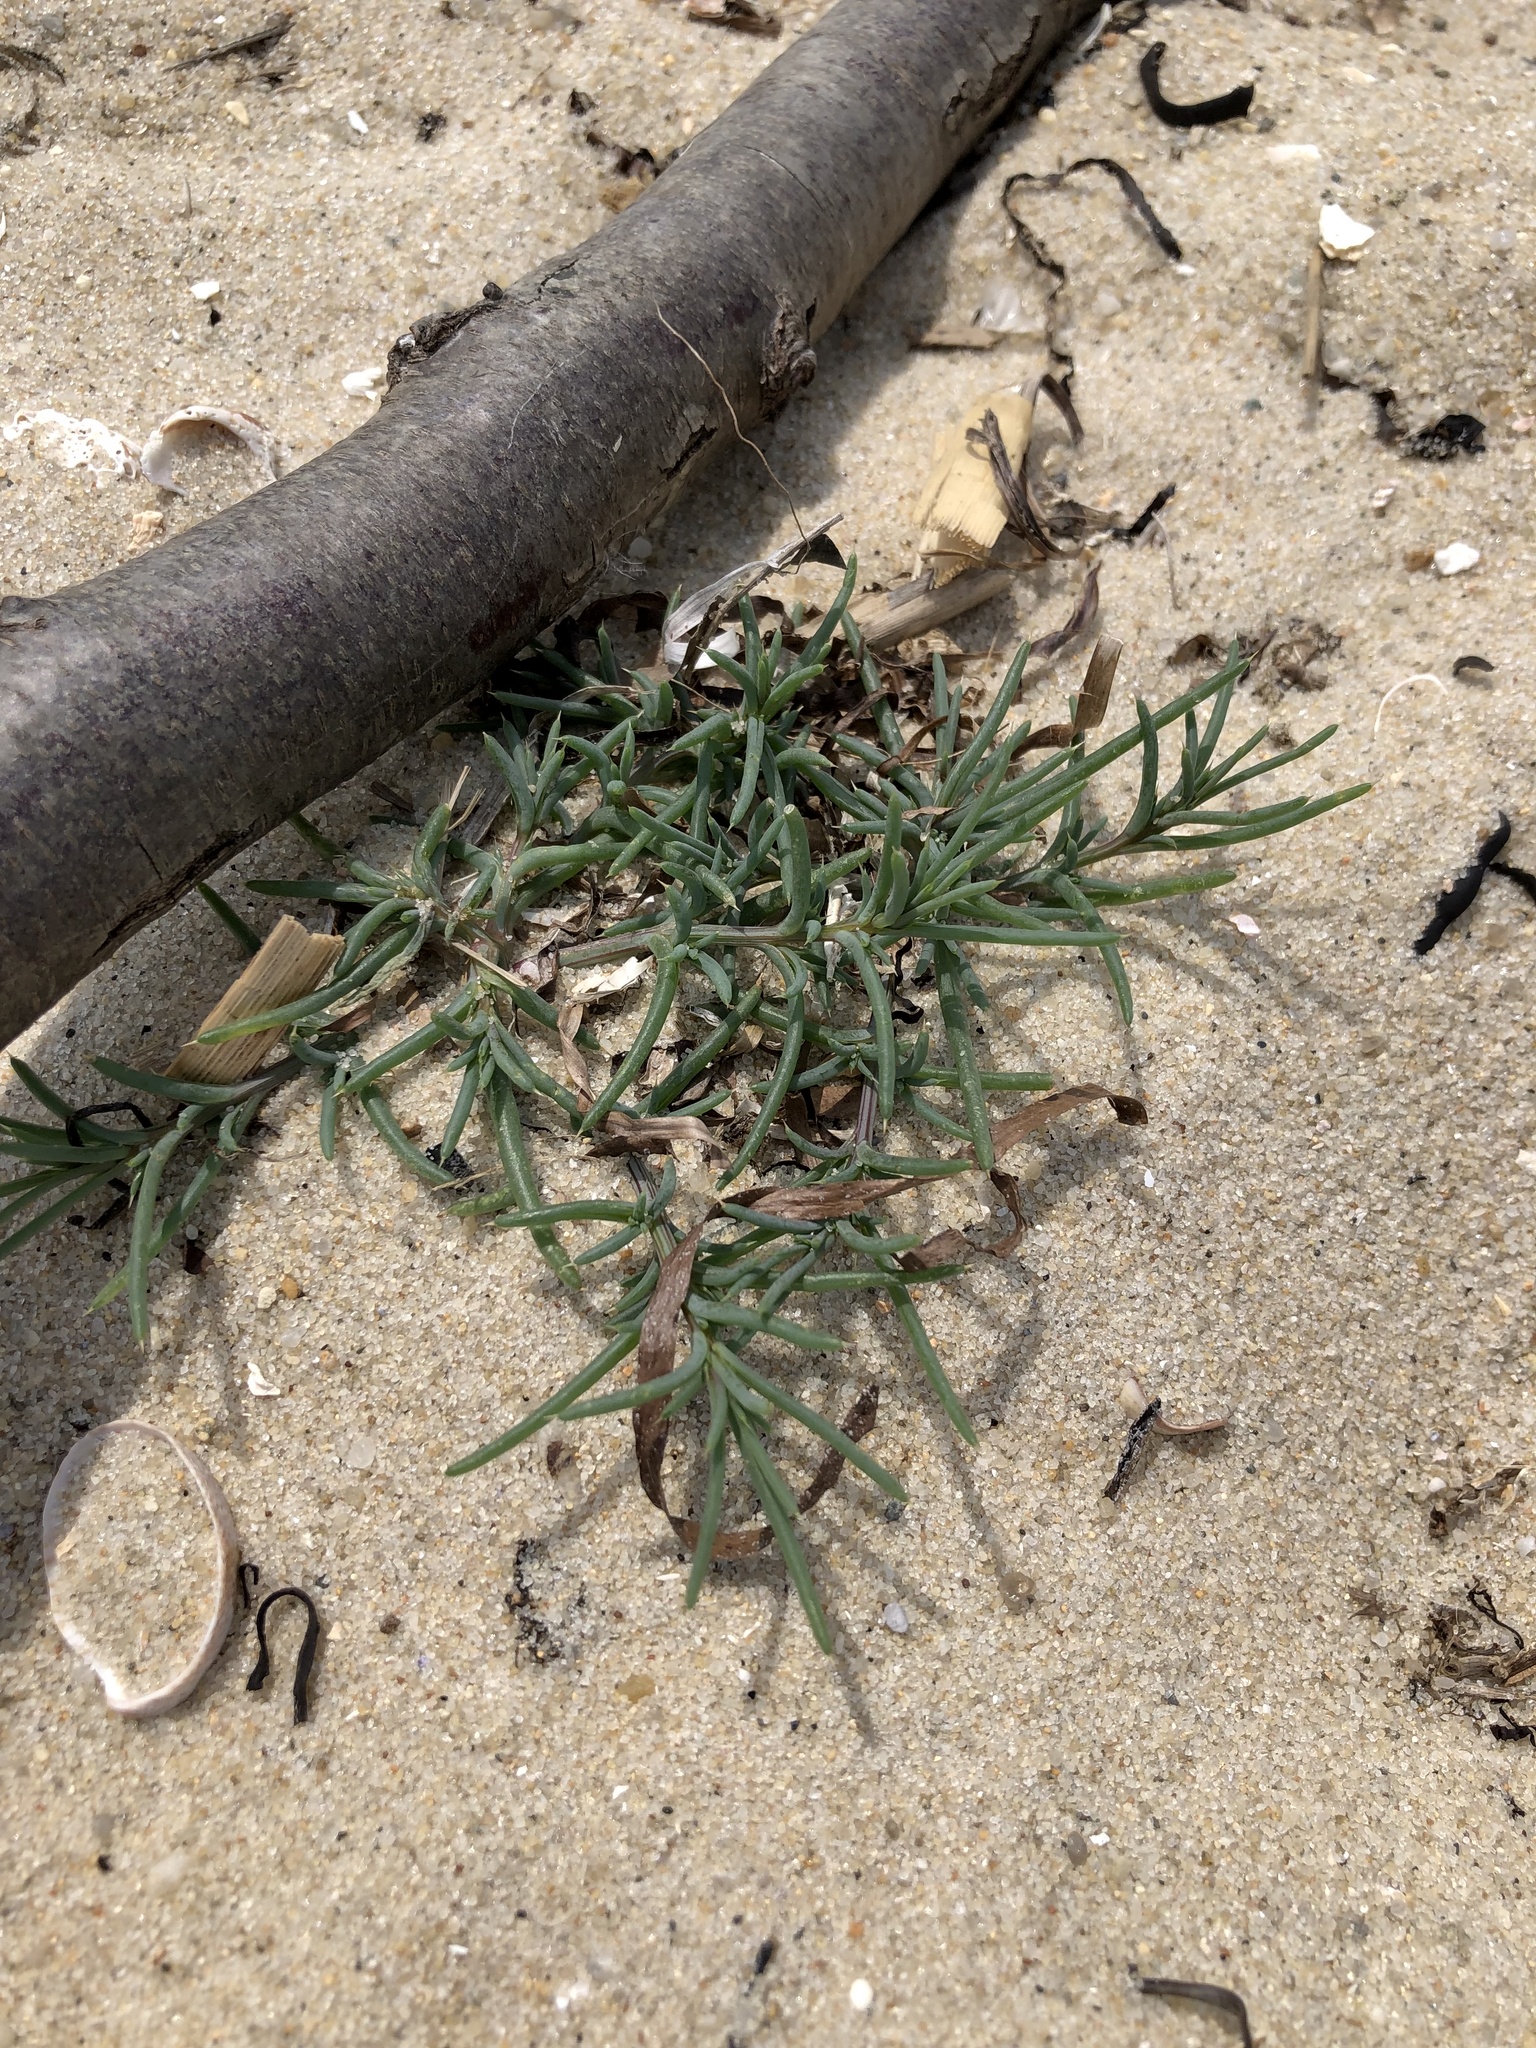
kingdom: Plantae
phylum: Tracheophyta
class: Magnoliopsida
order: Caryophyllales
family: Amaranthaceae
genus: Salsola
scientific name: Salsola kali
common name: Saltwort
